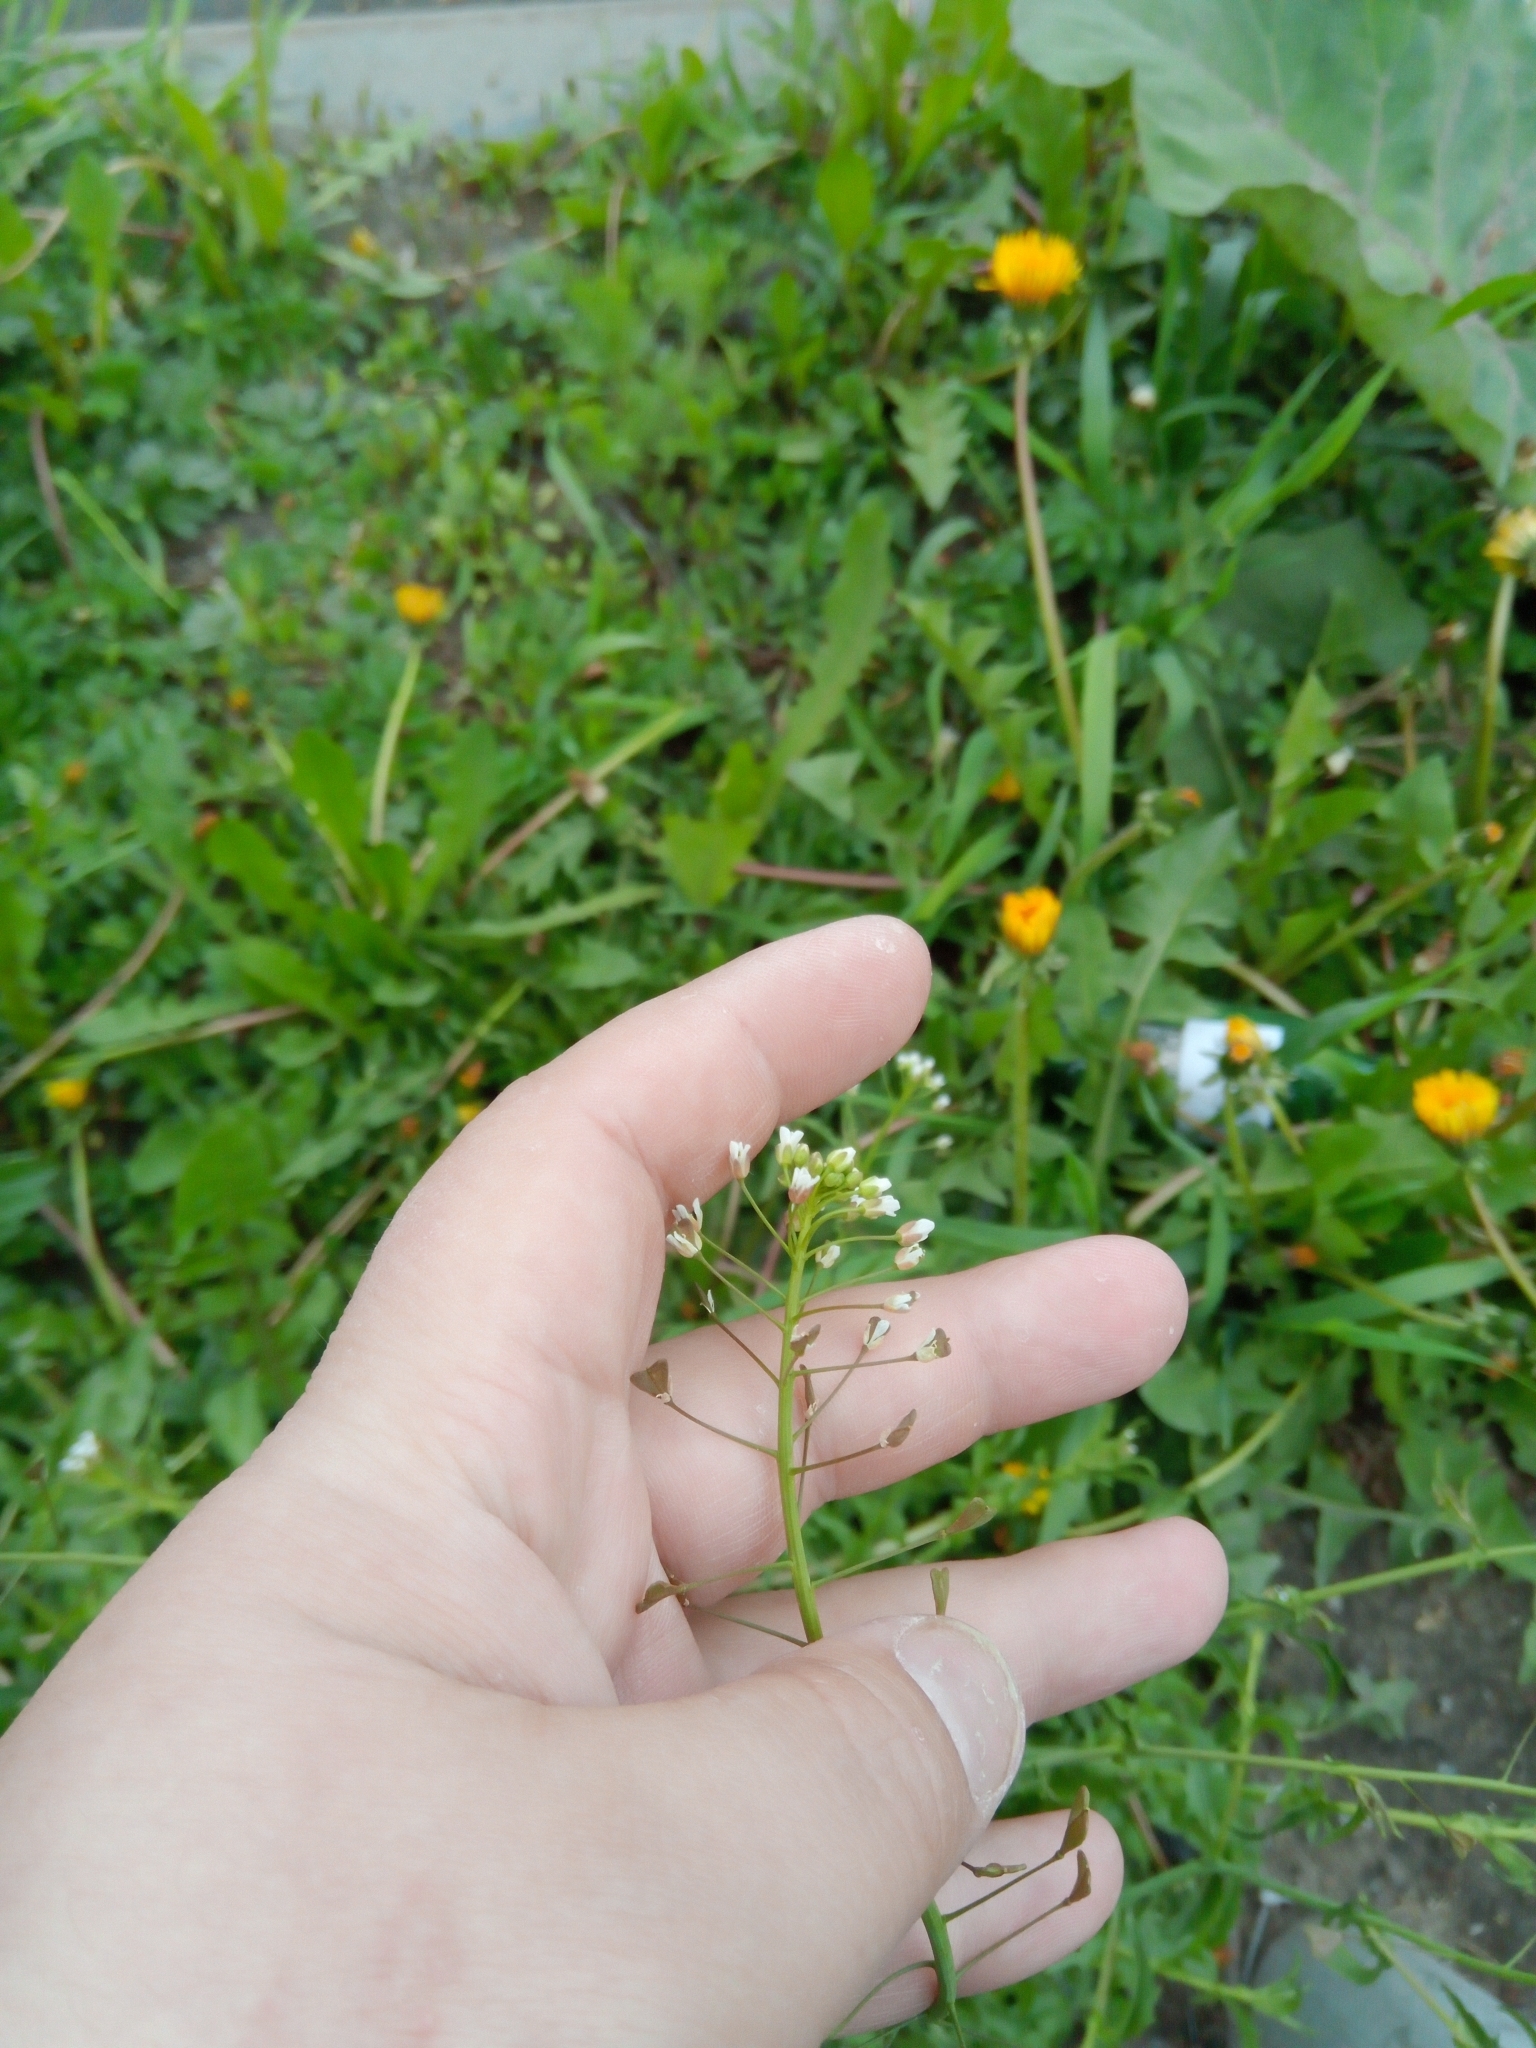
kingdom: Plantae
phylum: Tracheophyta
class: Magnoliopsida
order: Brassicales
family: Brassicaceae
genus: Capsella
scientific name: Capsella bursa-pastoris
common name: Shepherd's purse
